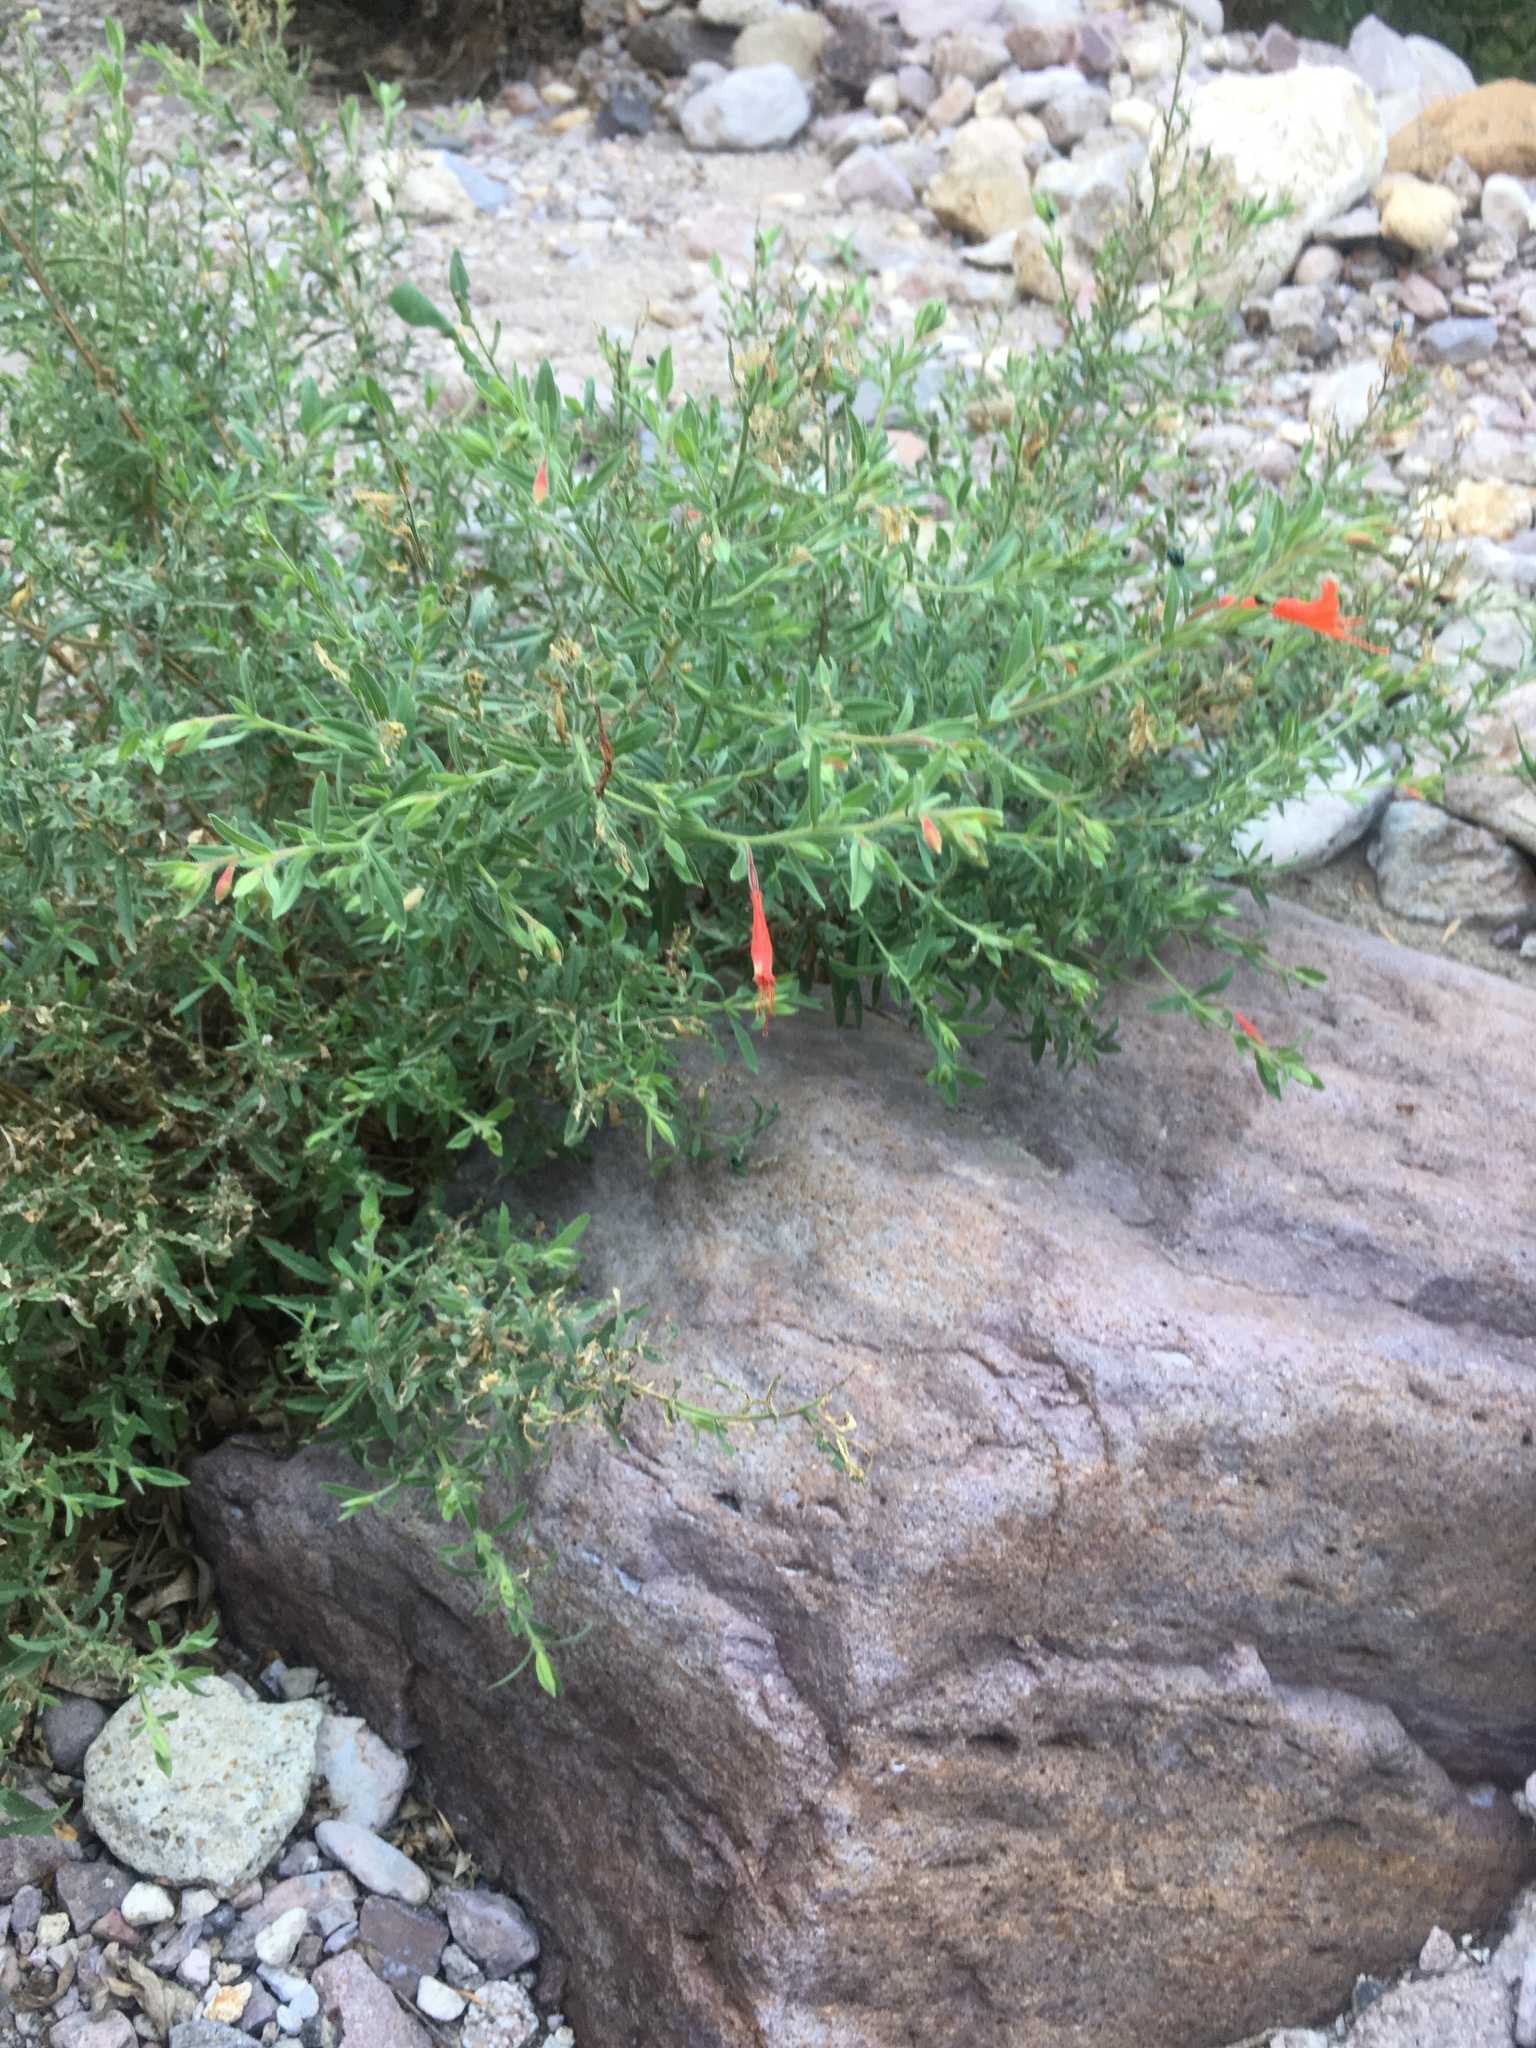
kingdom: Plantae
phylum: Tracheophyta
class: Magnoliopsida
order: Myrtales
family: Onagraceae
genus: Epilobium
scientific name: Epilobium canum
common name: California-fuchsia
